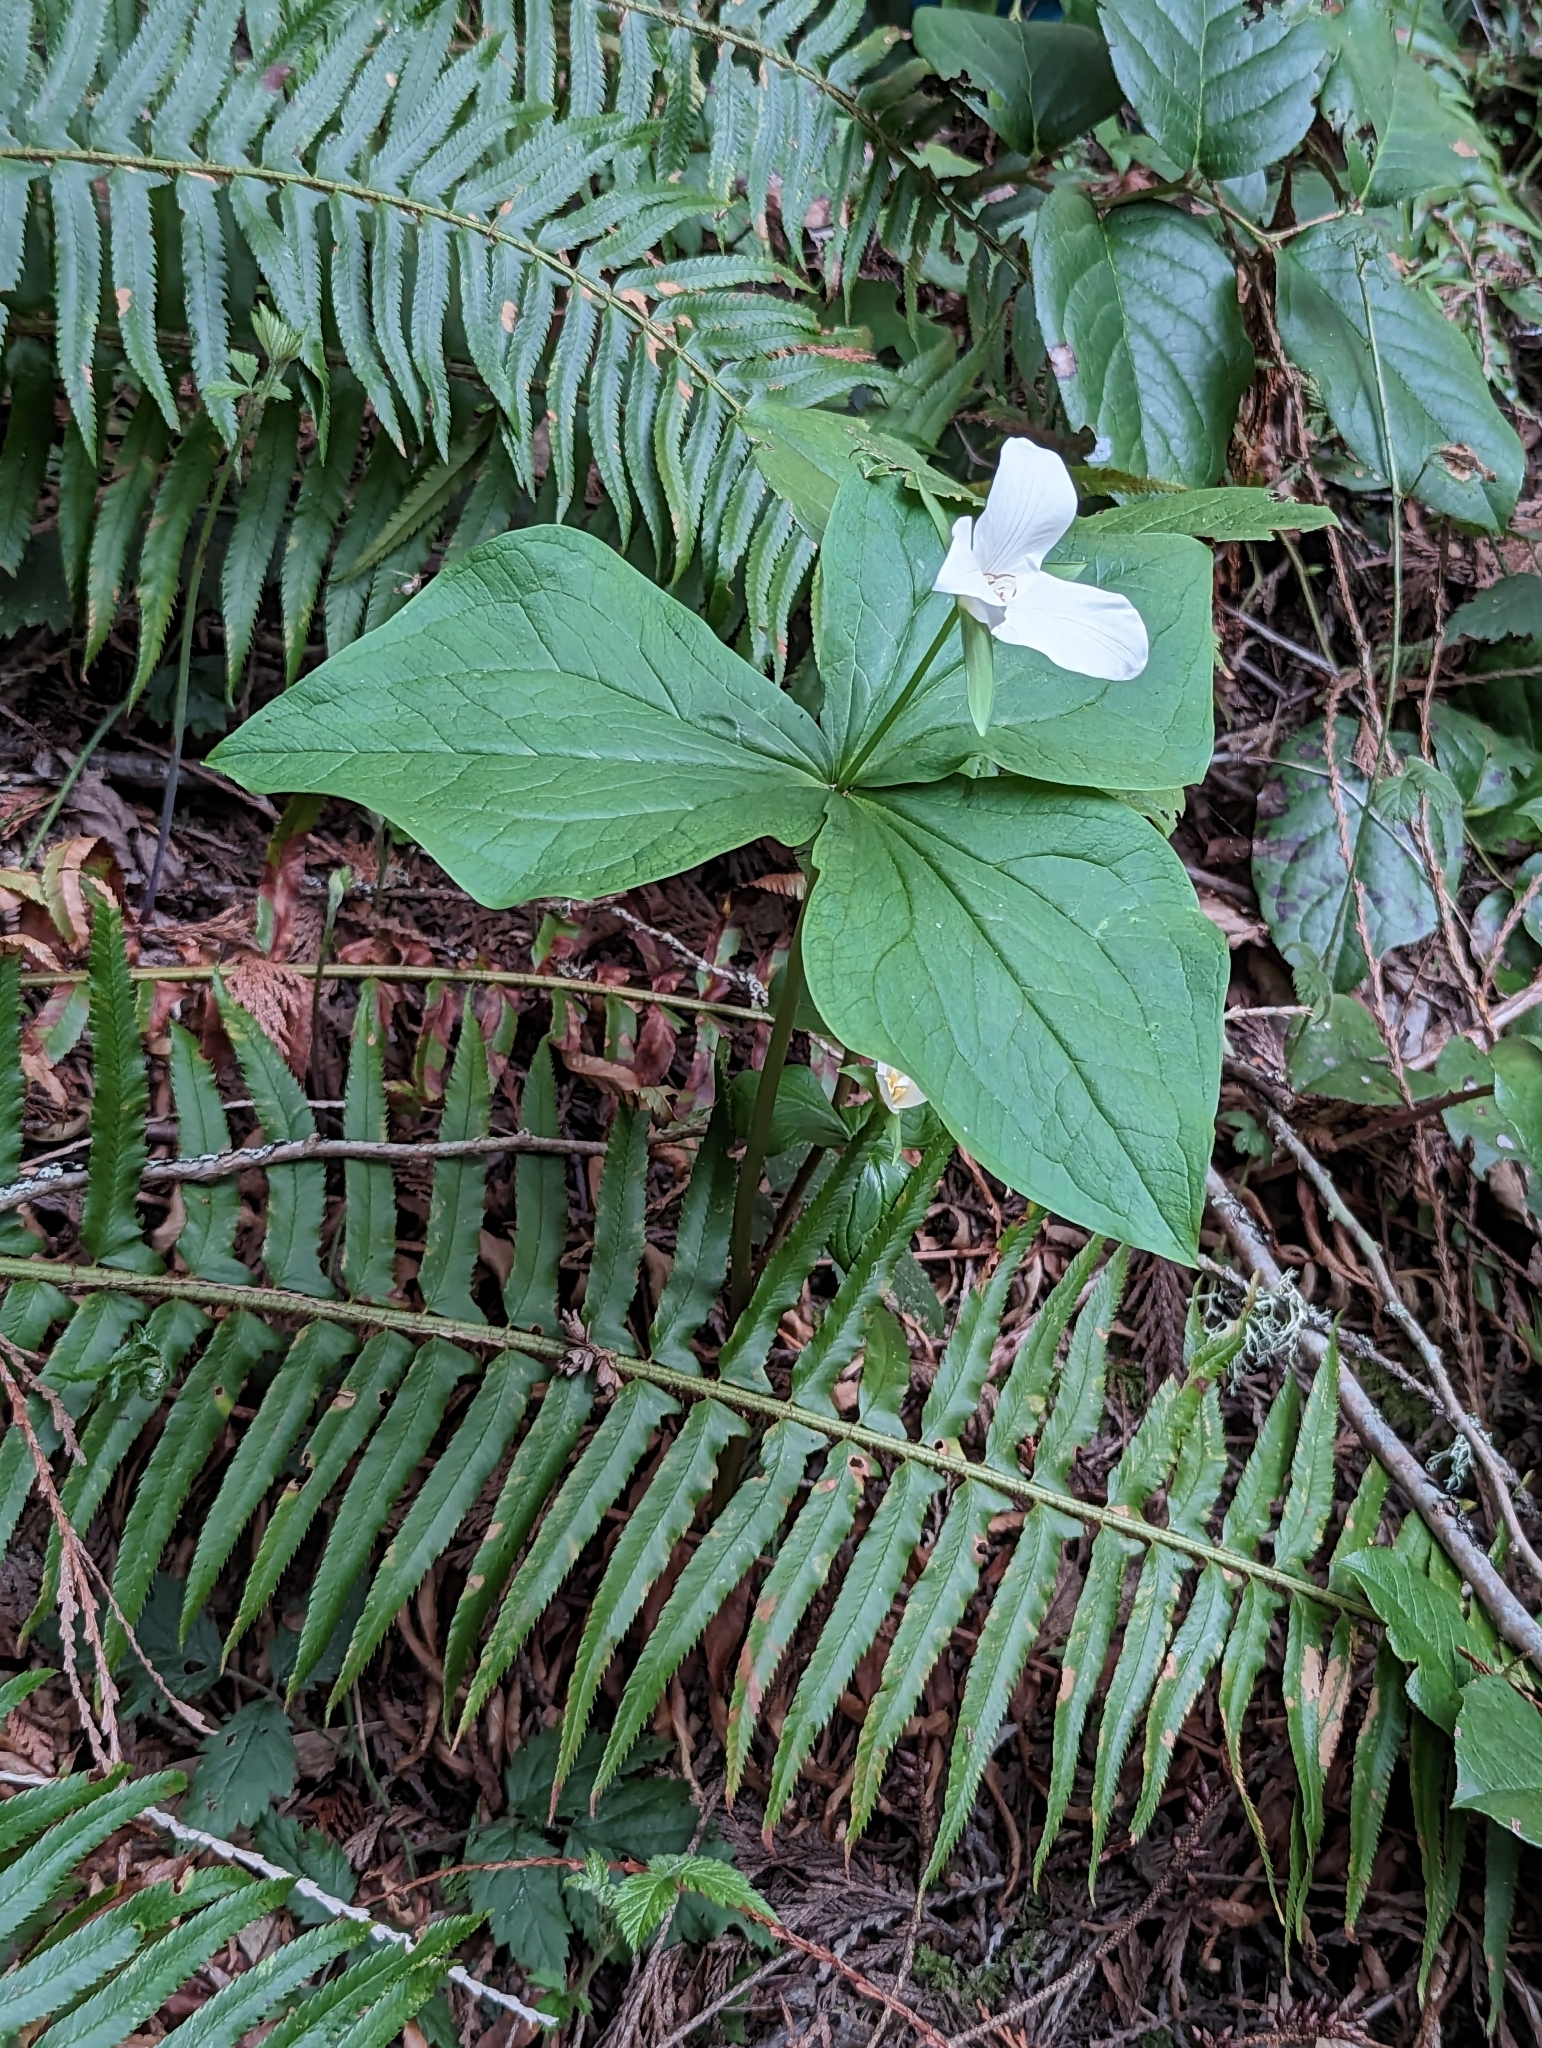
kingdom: Plantae
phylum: Tracheophyta
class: Liliopsida
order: Liliales
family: Melanthiaceae
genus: Trillium
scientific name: Trillium ovatum
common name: Pacific trillium
